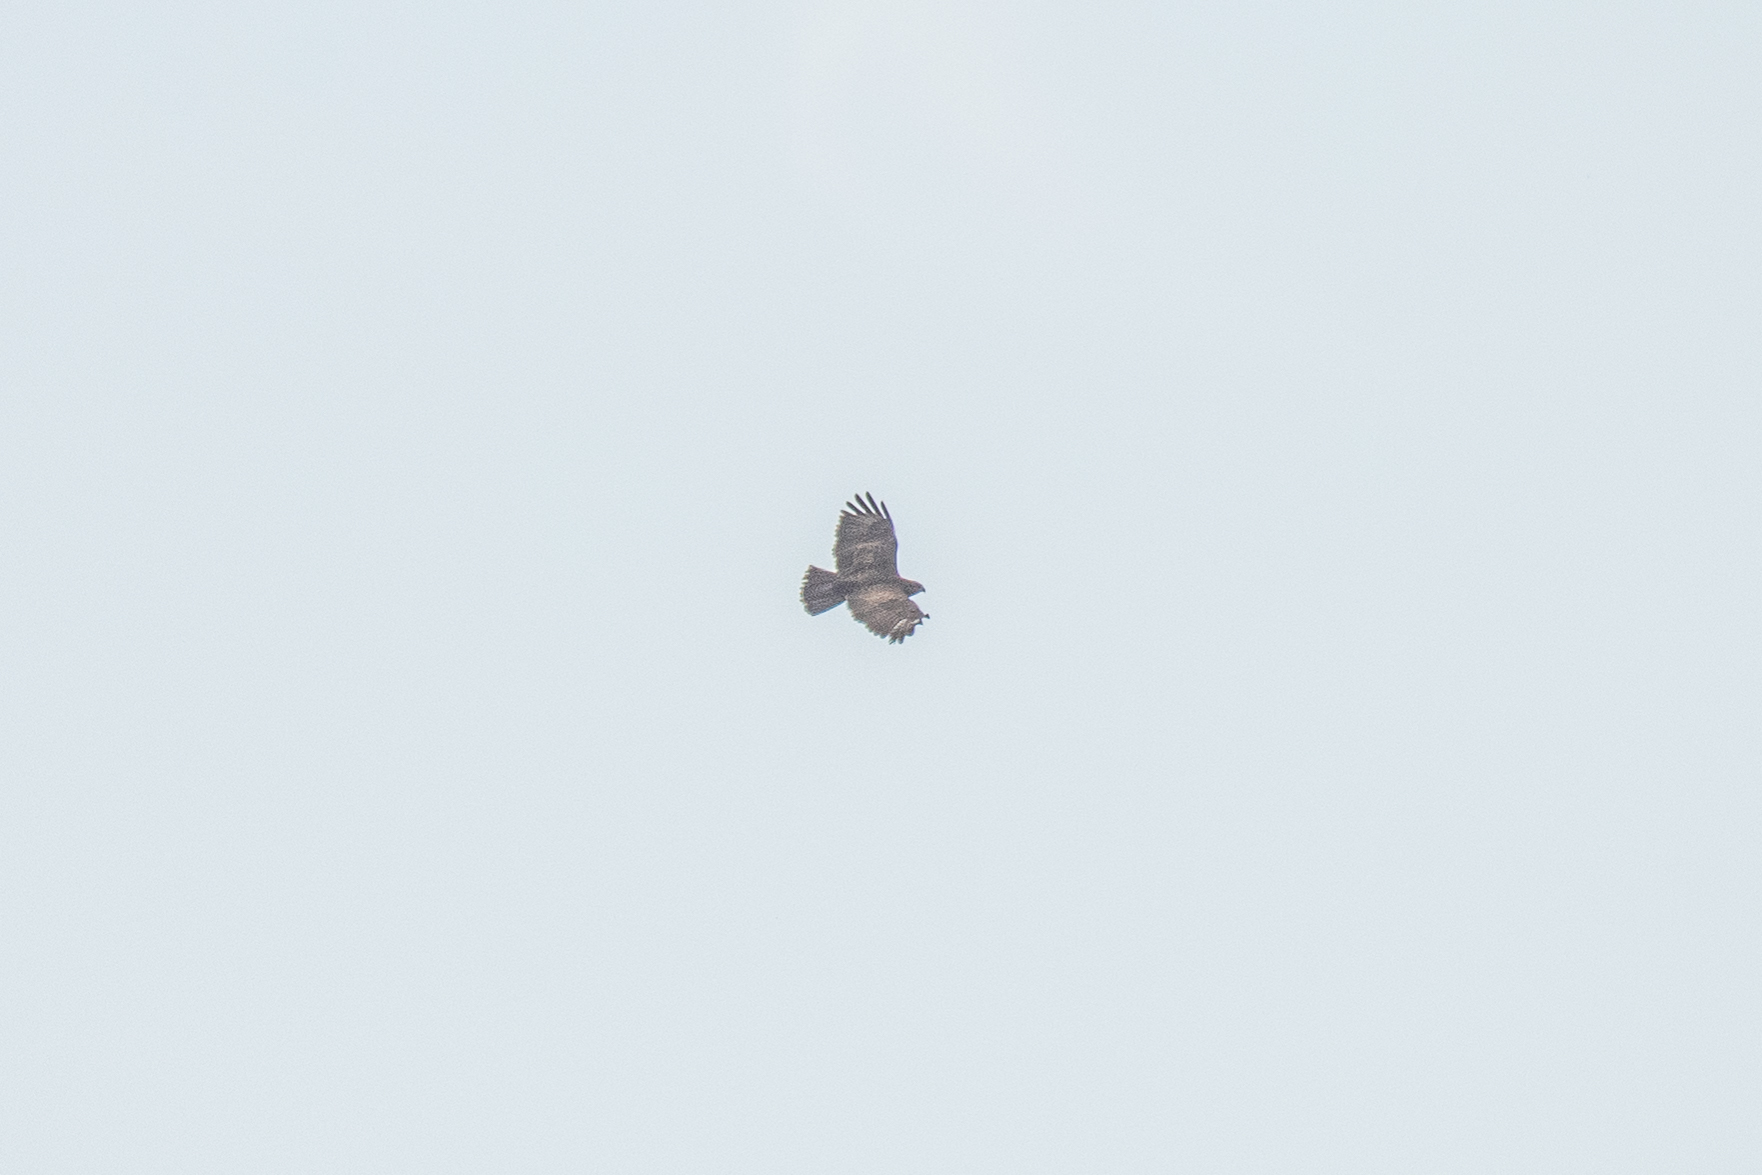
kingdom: Animalia
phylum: Chordata
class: Aves
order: Accipitriformes
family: Accipitridae
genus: Buteo
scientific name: Buteo buteo
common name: Common buzzard
